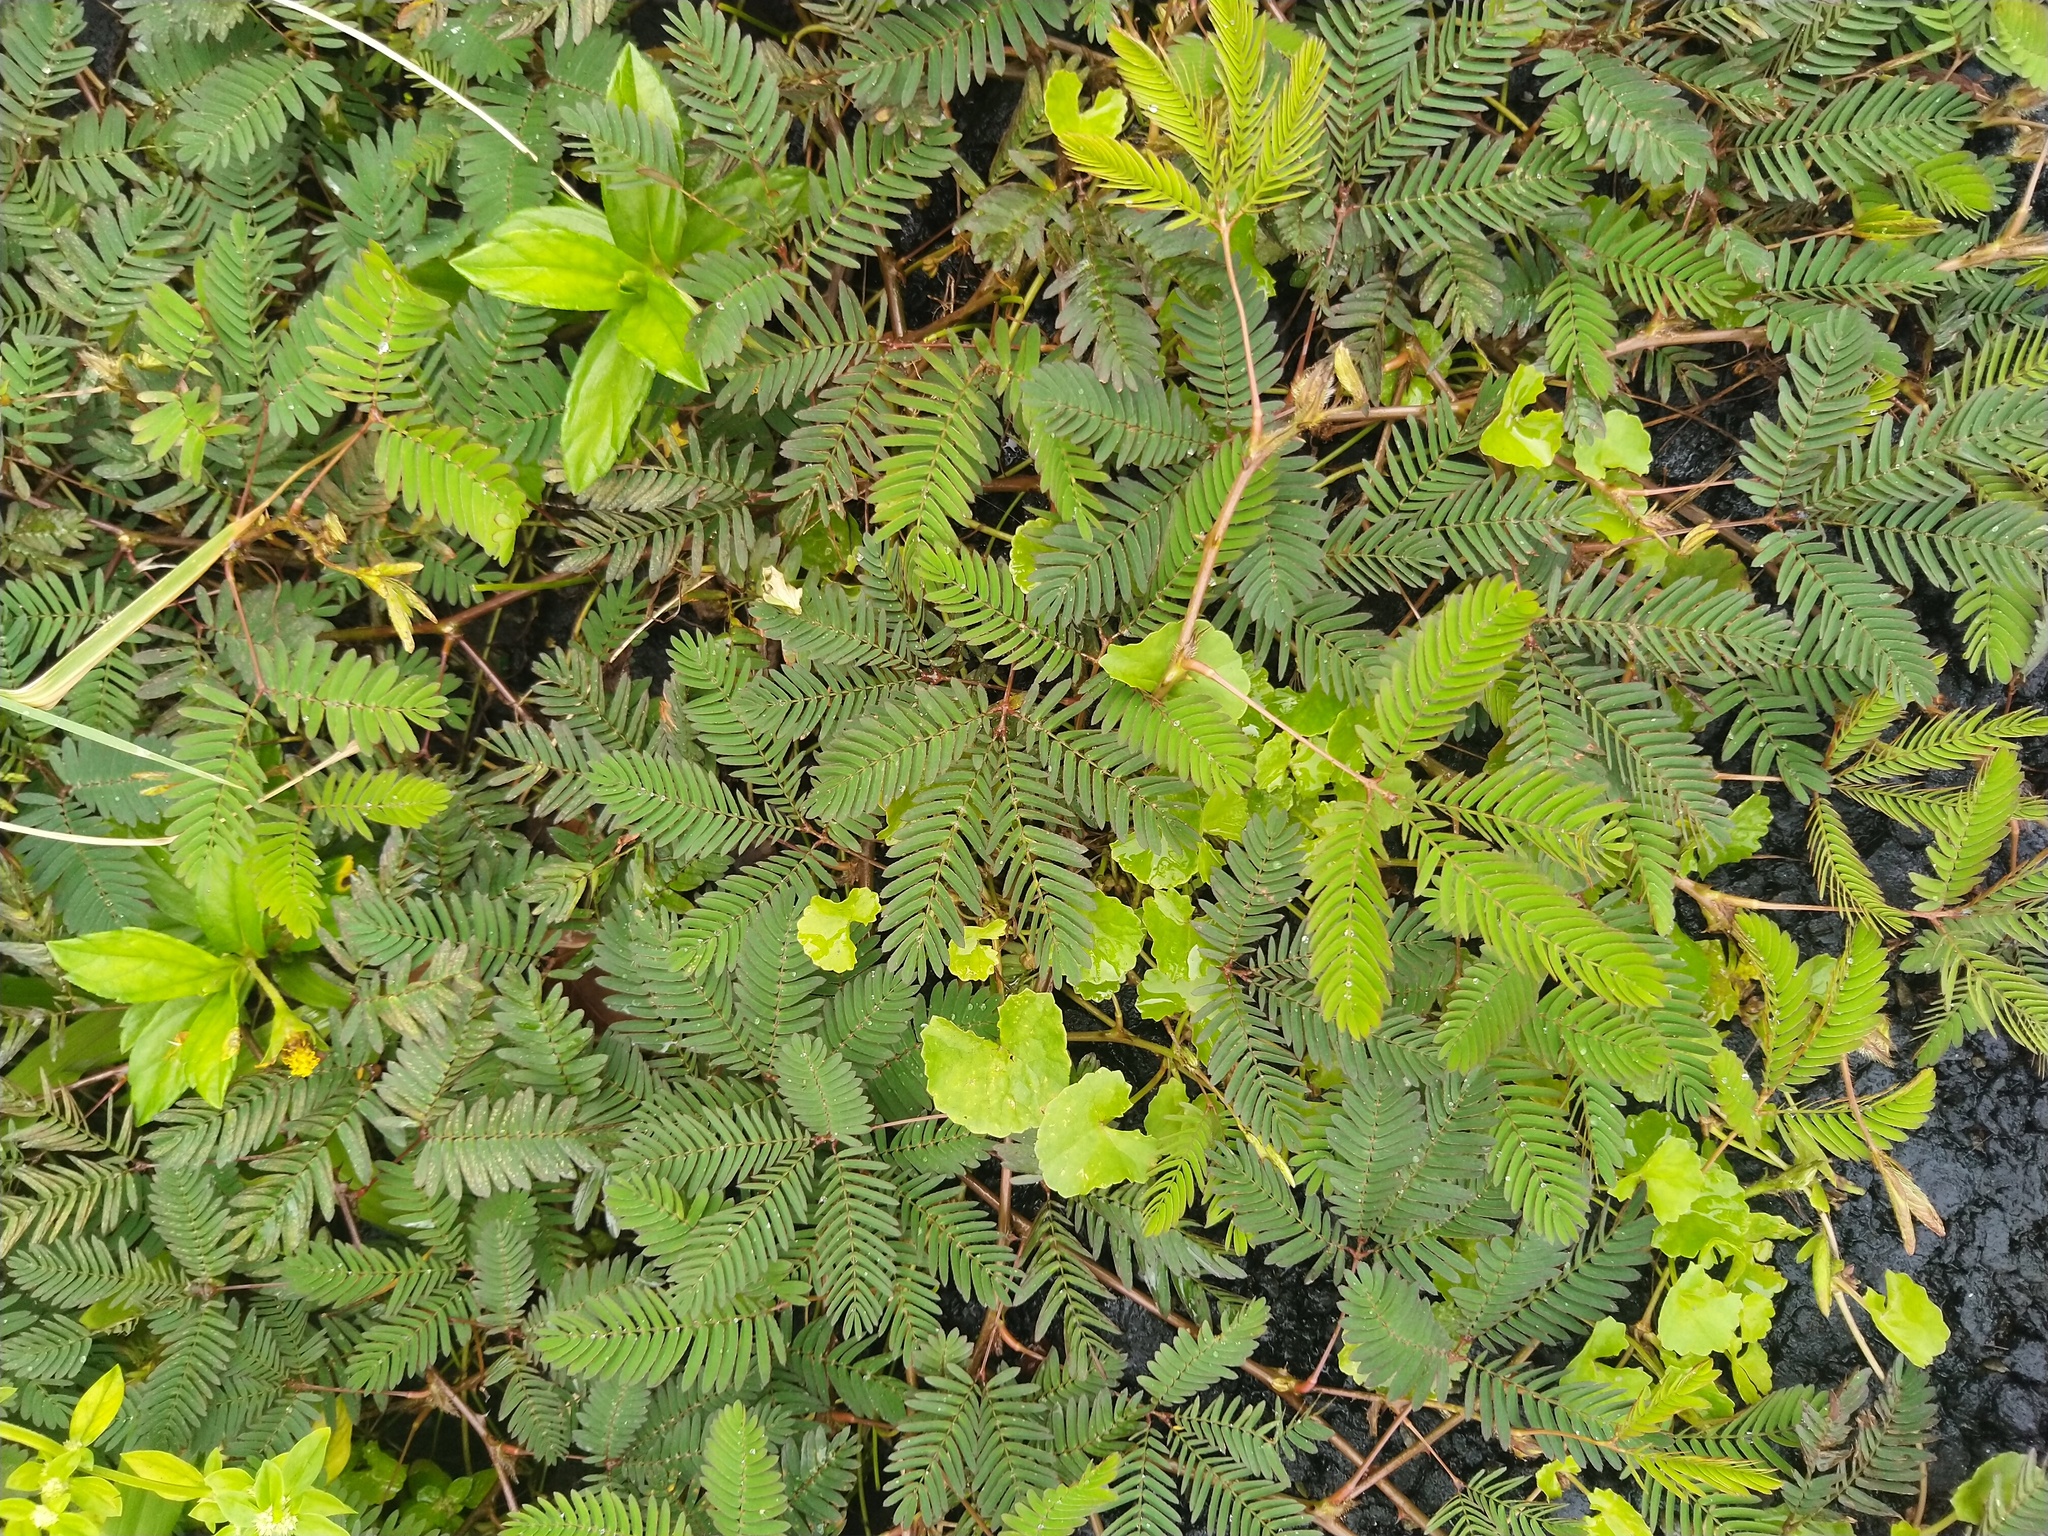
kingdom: Plantae
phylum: Tracheophyta
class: Magnoliopsida
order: Fabales
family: Fabaceae
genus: Mimosa
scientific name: Mimosa pudica
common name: Sensitive plant
